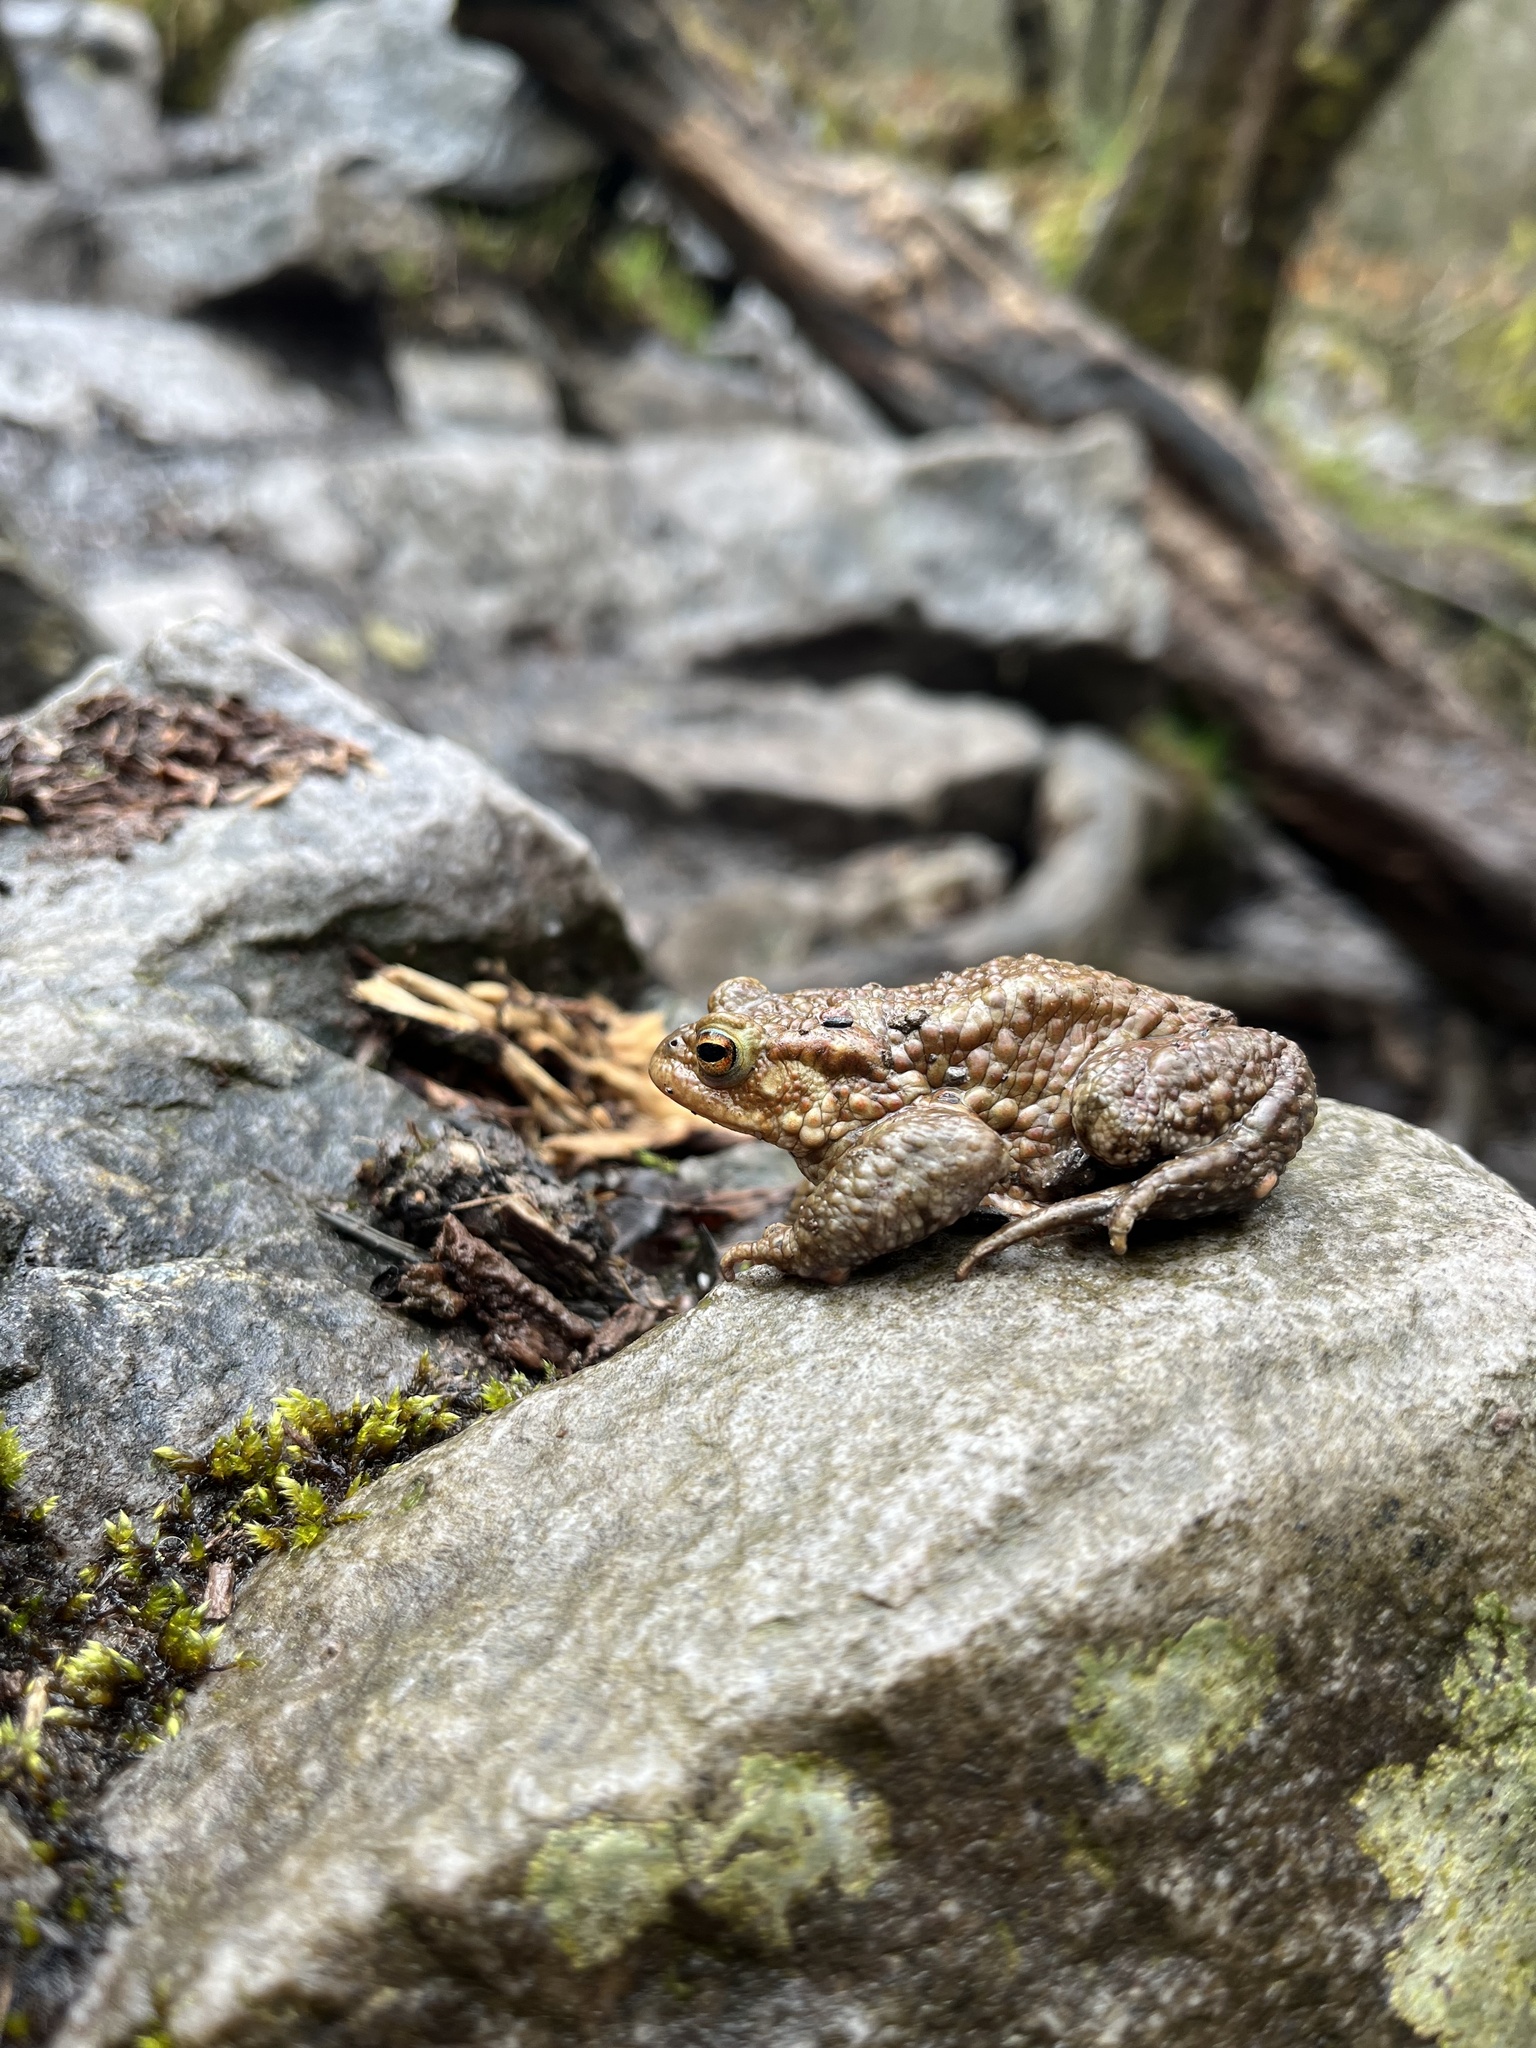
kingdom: Animalia
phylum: Chordata
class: Amphibia
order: Anura
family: Bufonidae
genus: Bufo
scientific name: Bufo bufo
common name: Common toad
